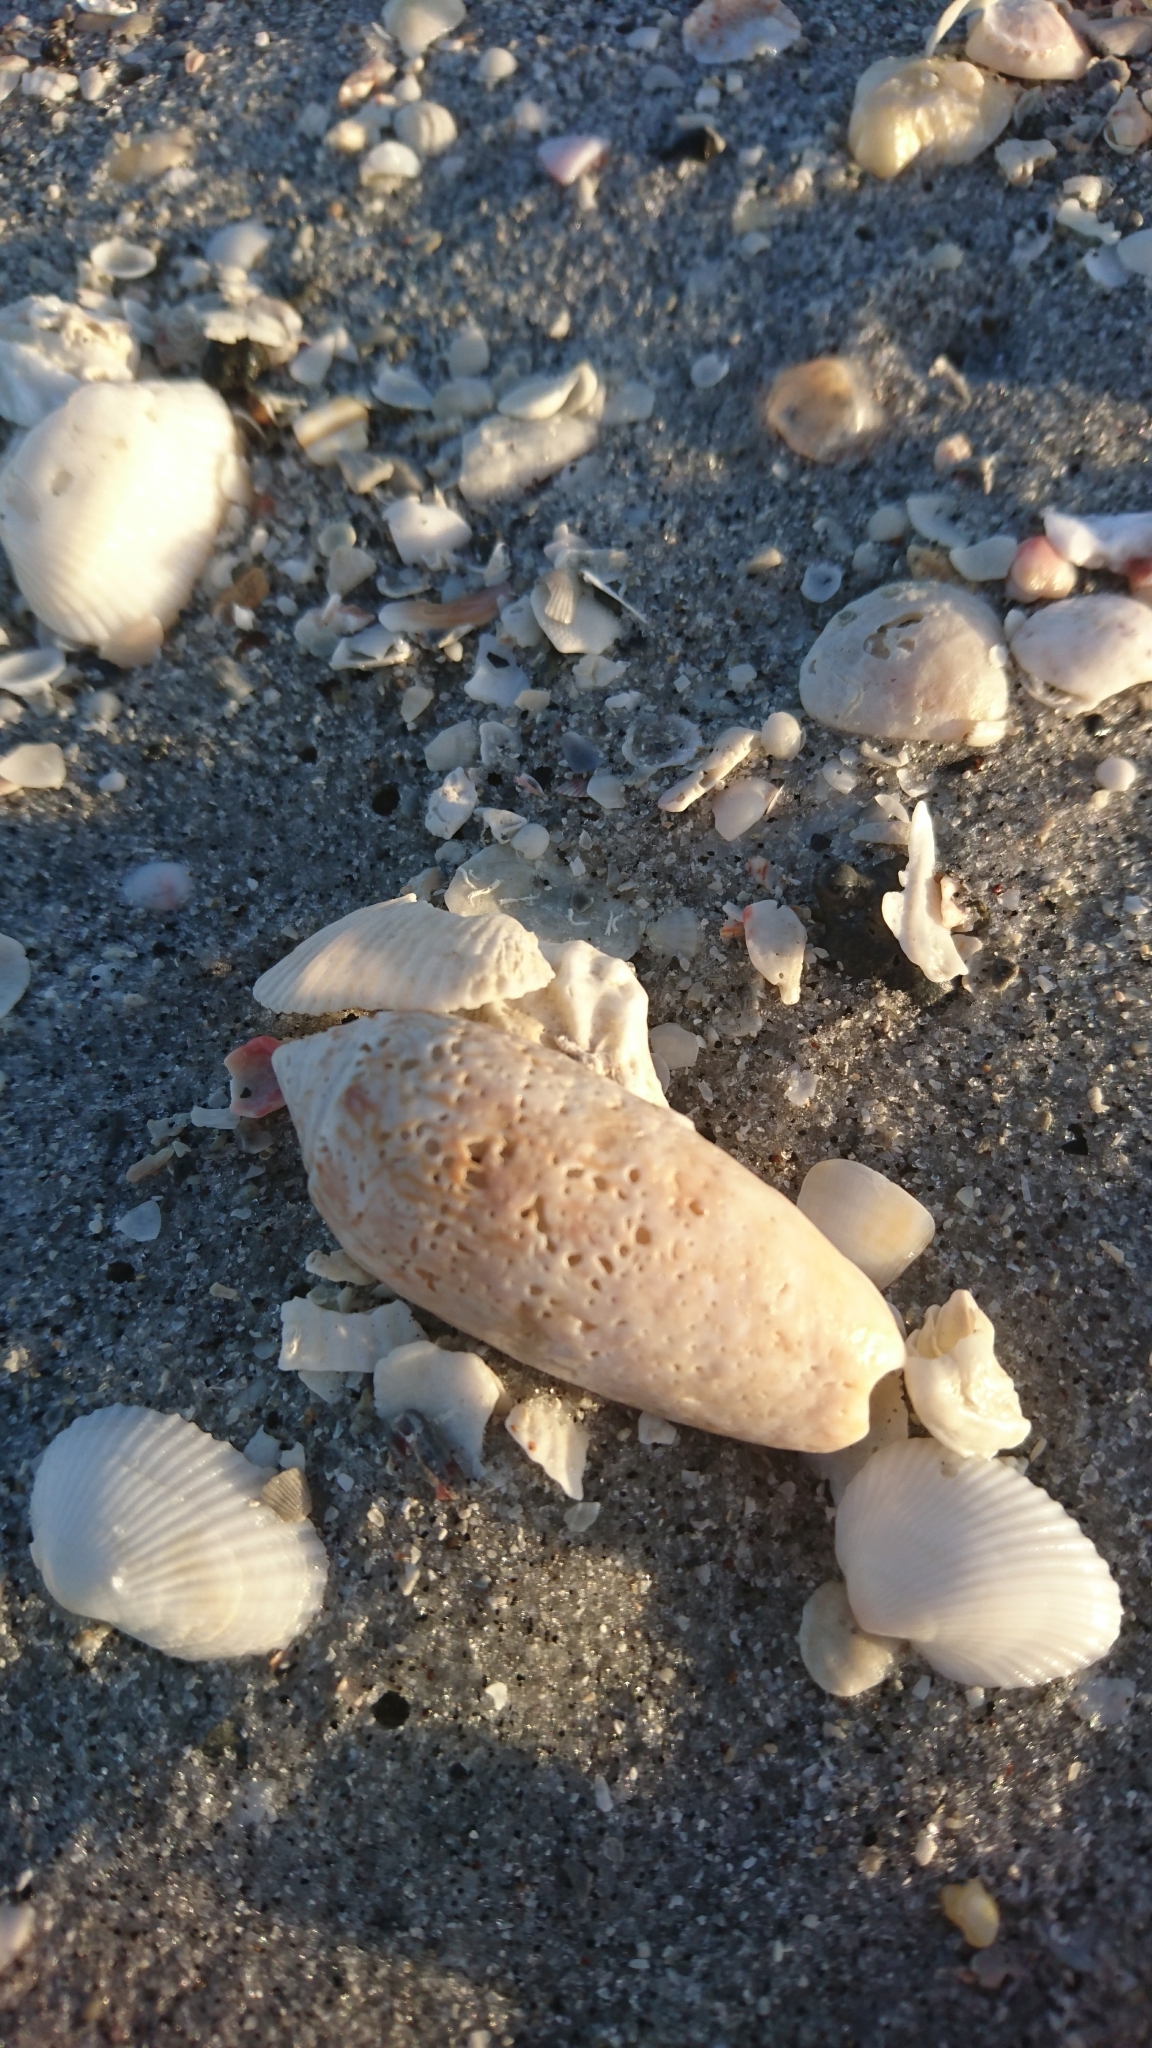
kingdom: Animalia
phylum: Mollusca
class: Gastropoda
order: Neogastropoda
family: Olividae
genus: Oliva
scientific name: Oliva sayana
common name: Lettered olive
